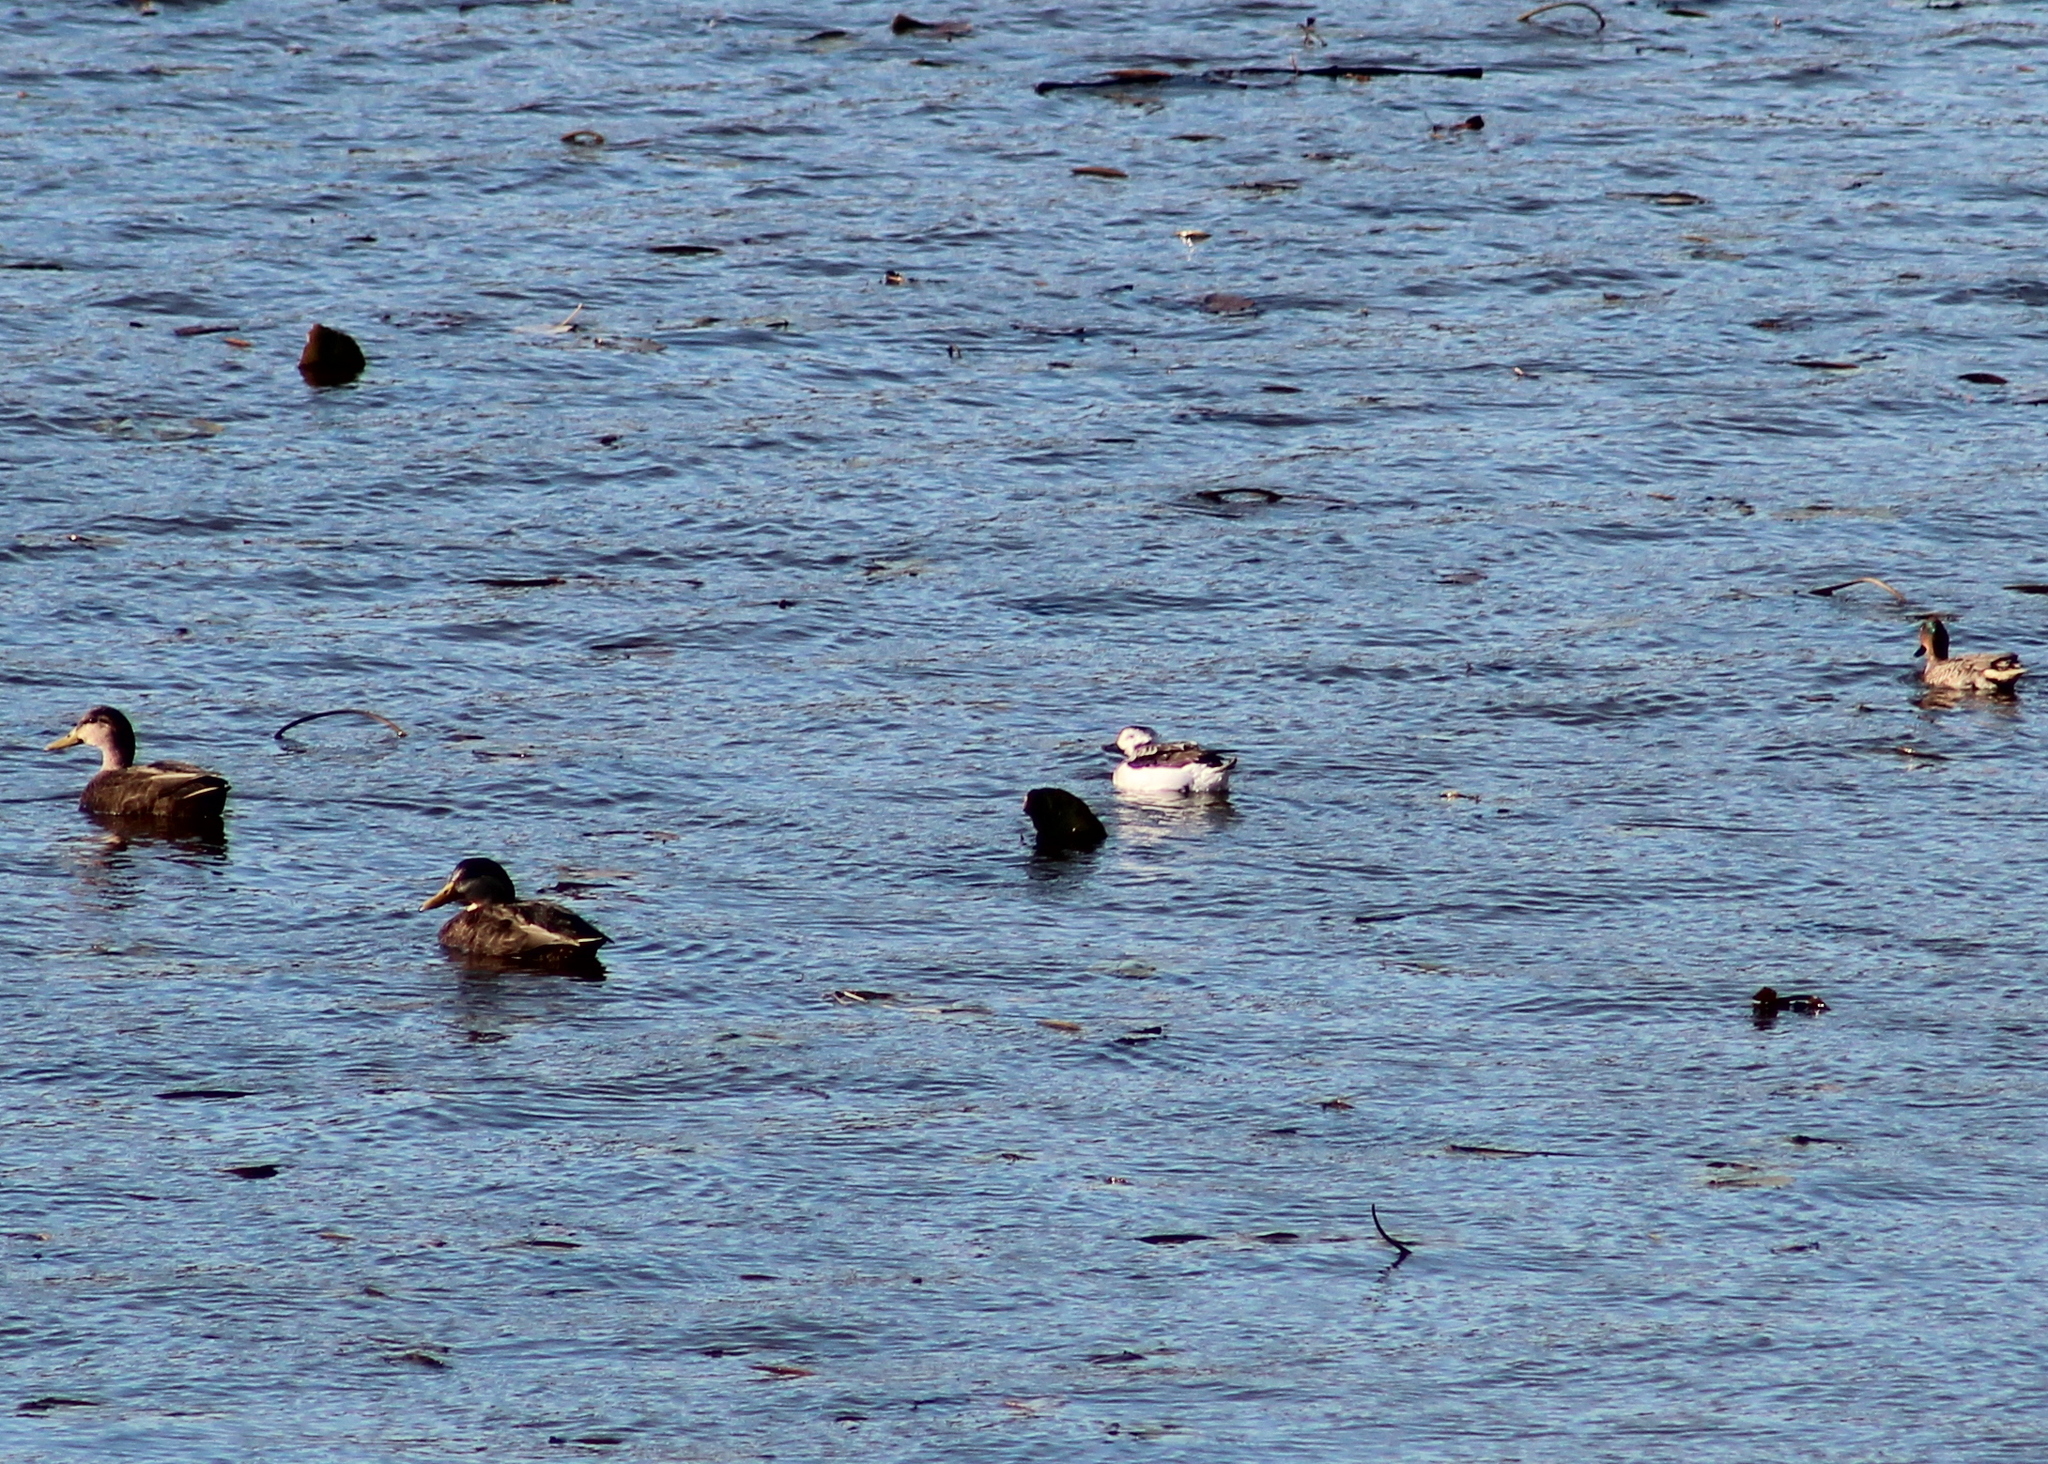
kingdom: Animalia
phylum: Chordata
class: Aves
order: Anseriformes
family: Anatidae
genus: Anas
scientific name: Anas rubripes
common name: American black duck
